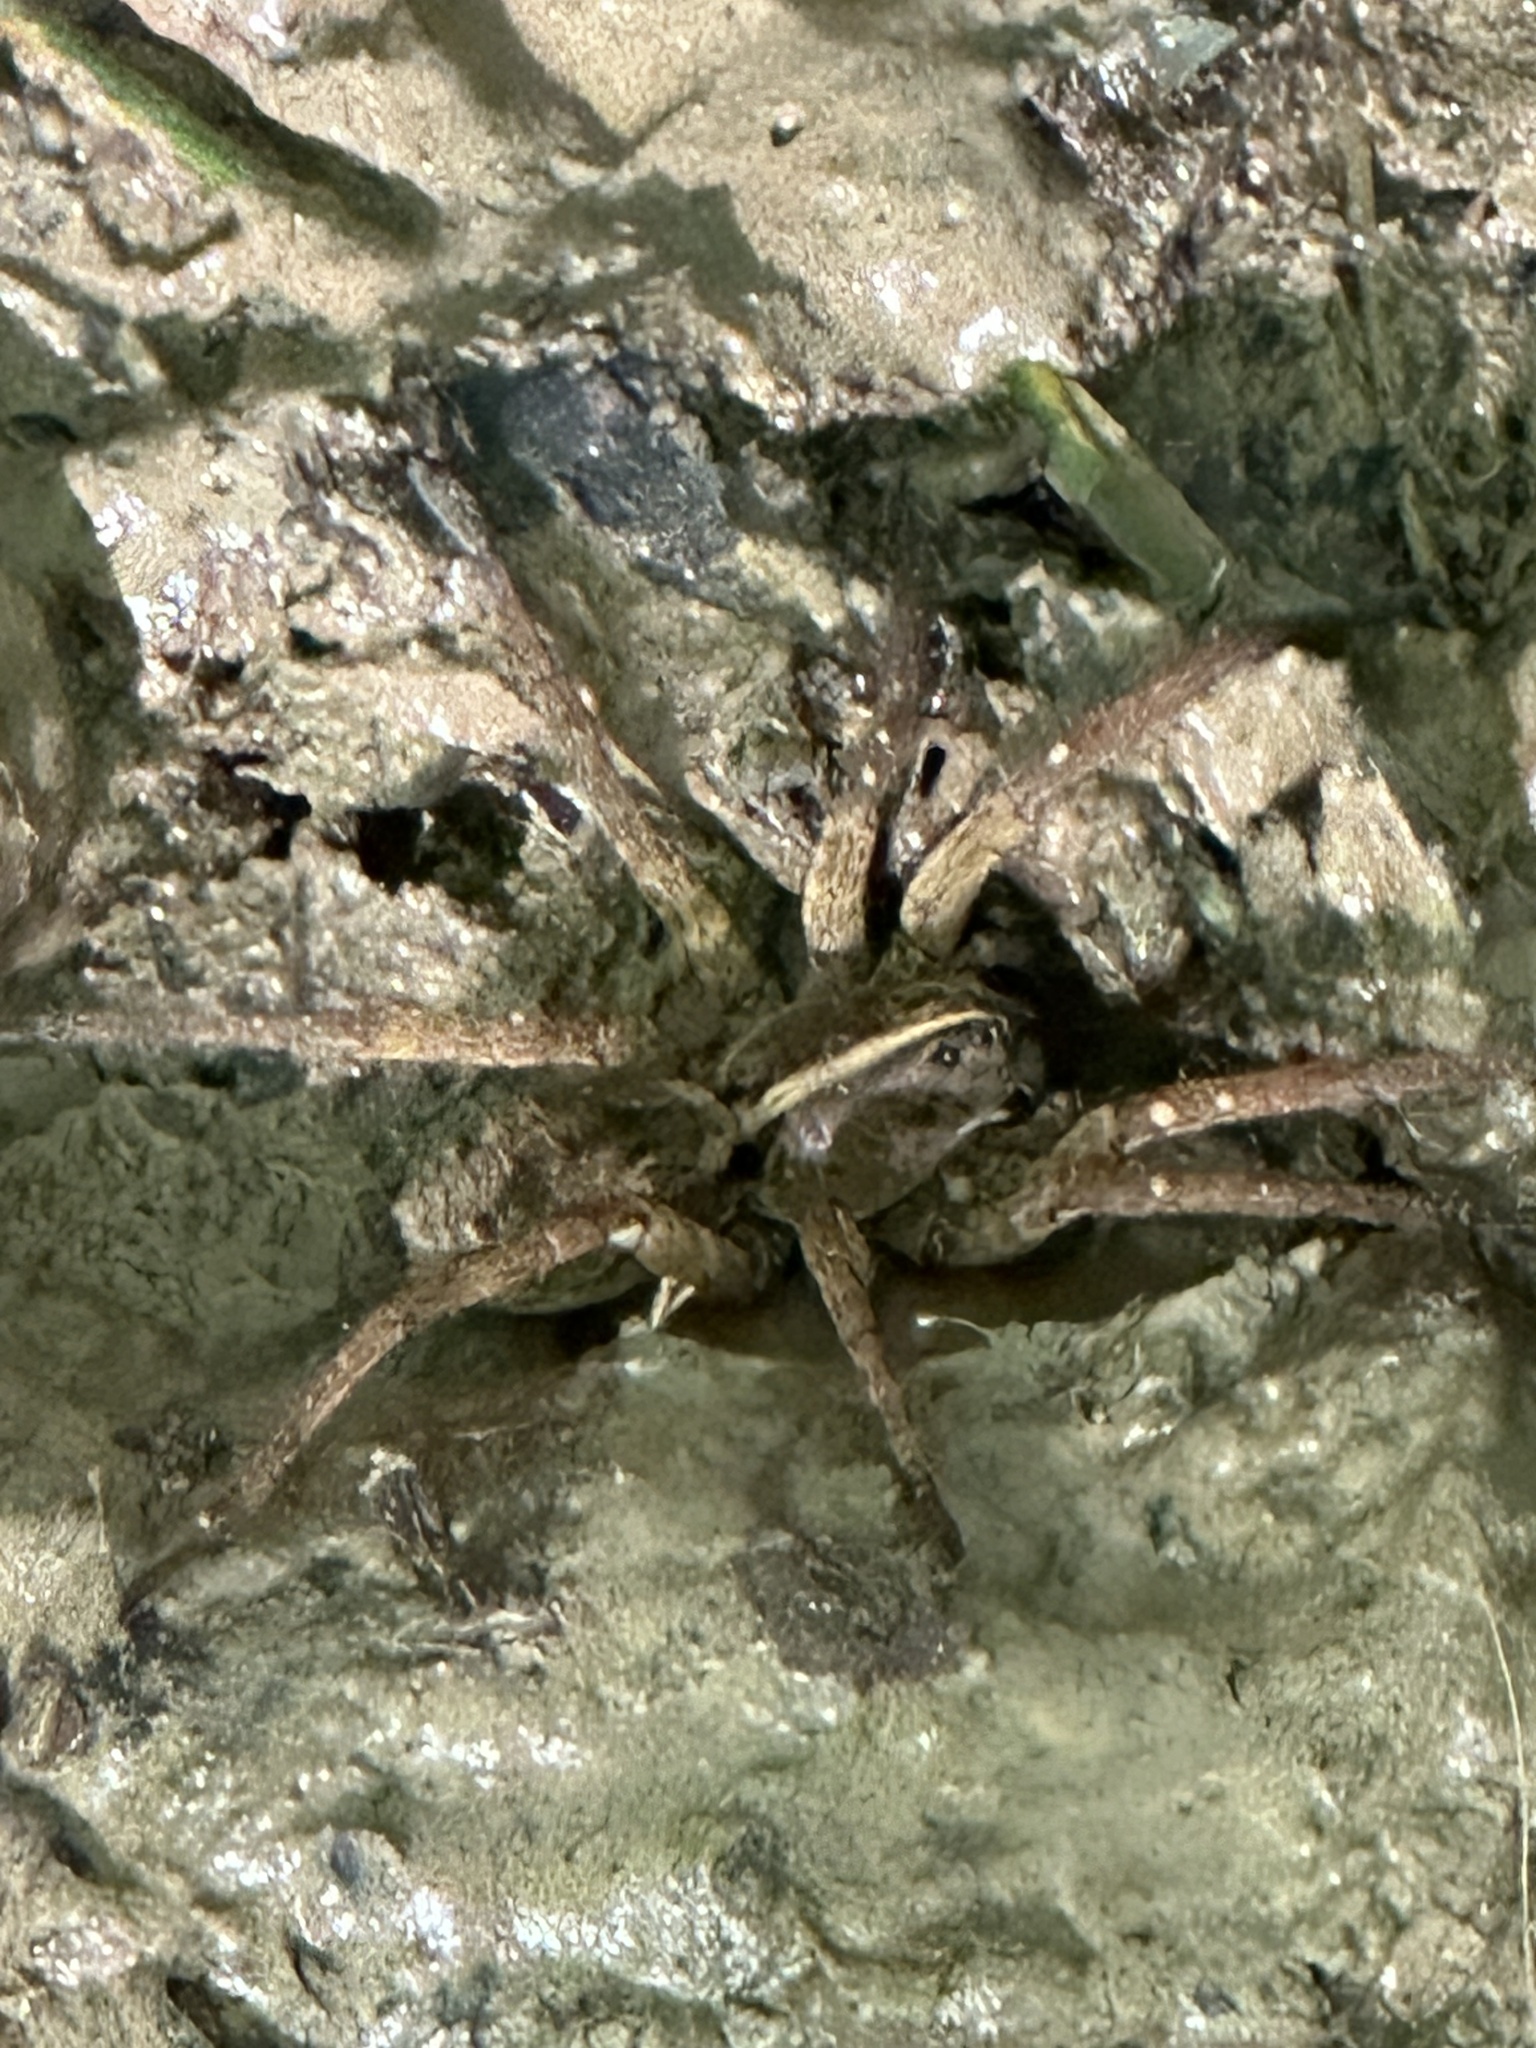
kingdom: Animalia
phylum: Arthropoda
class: Arachnida
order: Araneae
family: Lycosidae
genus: Tigrosa
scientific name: Tigrosa annexa
